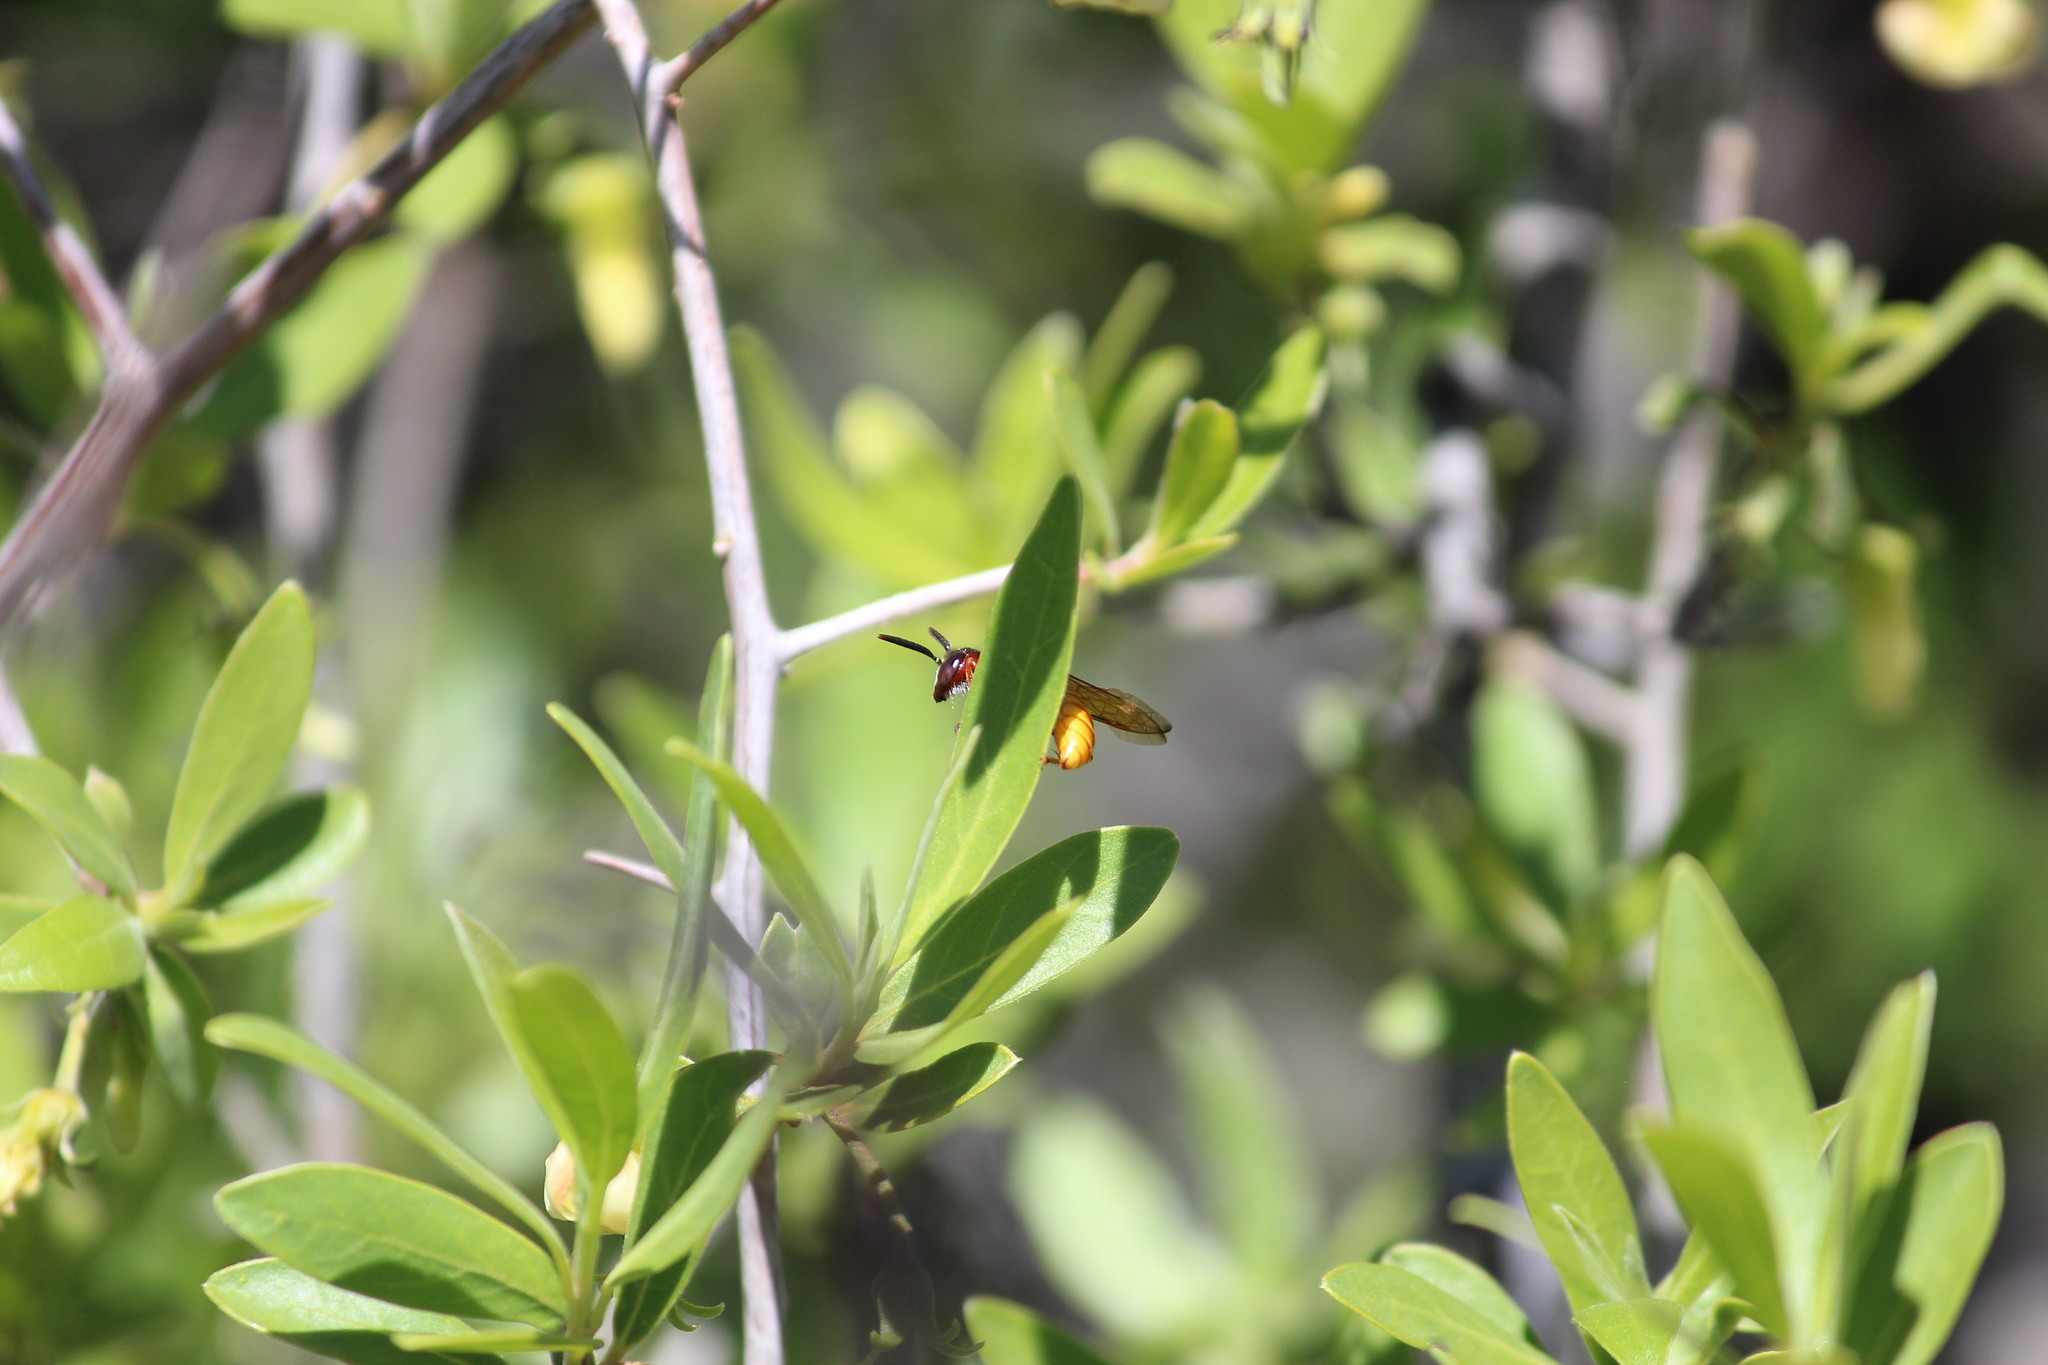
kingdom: Animalia
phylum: Arthropoda
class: Insecta
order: Hymenoptera
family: Crabronidae
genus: Philanthus
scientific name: Philanthus triangulum
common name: Bee wolf
